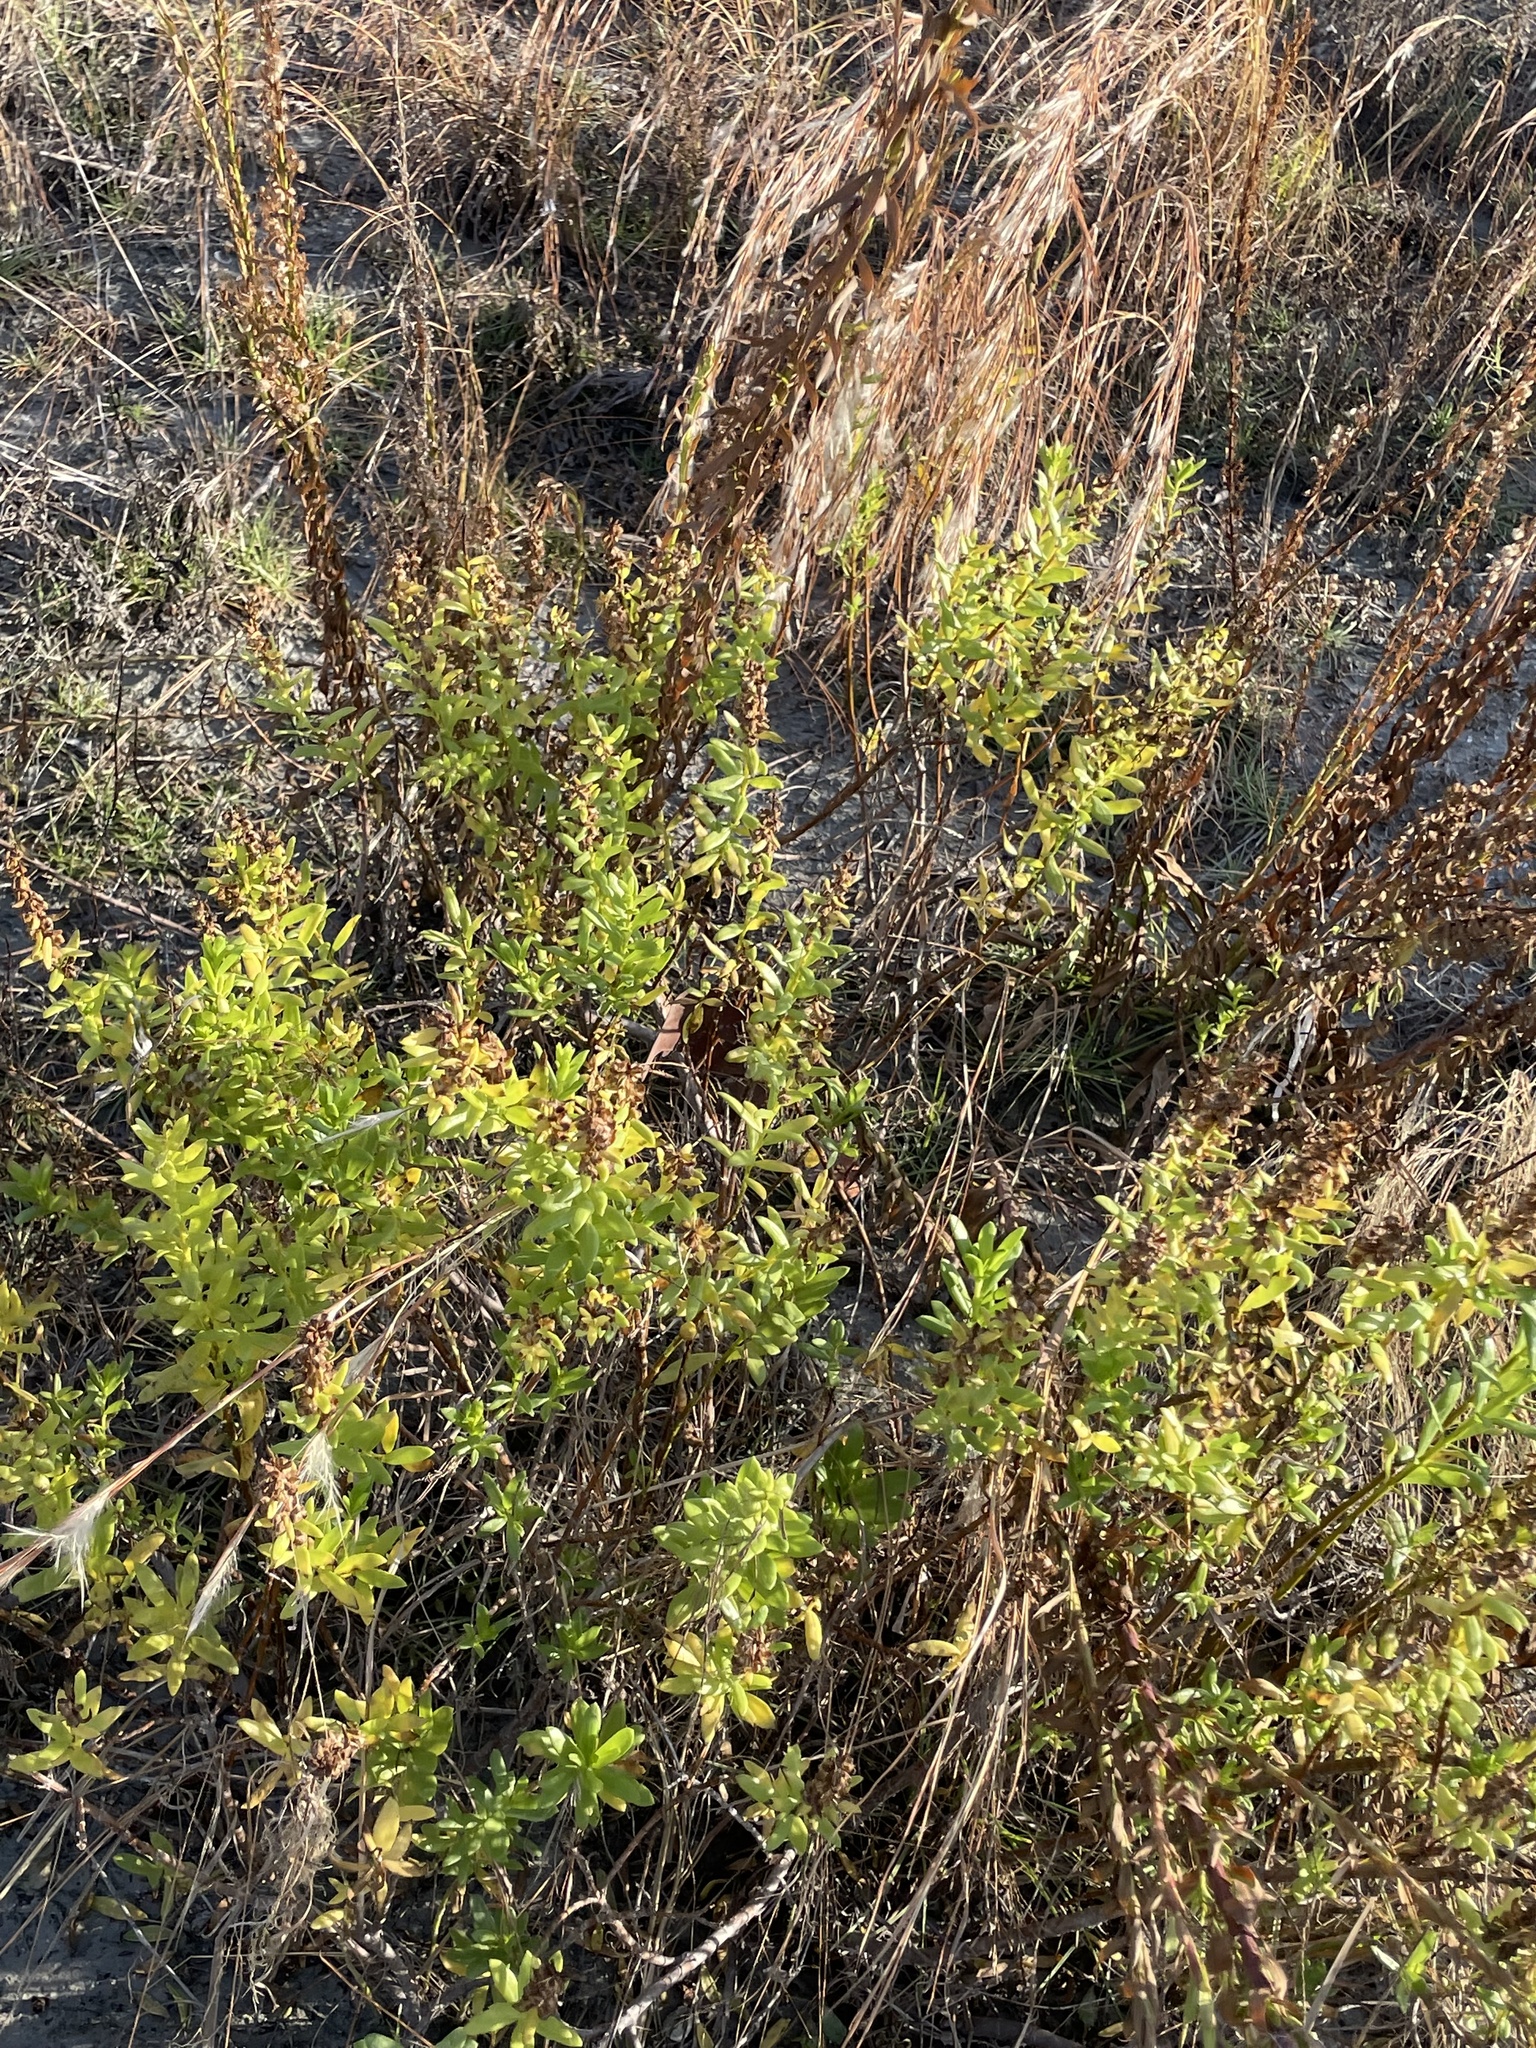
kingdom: Plantae
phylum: Tracheophyta
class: Magnoliopsida
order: Asterales
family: Asteraceae
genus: Iva
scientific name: Iva imbricata
